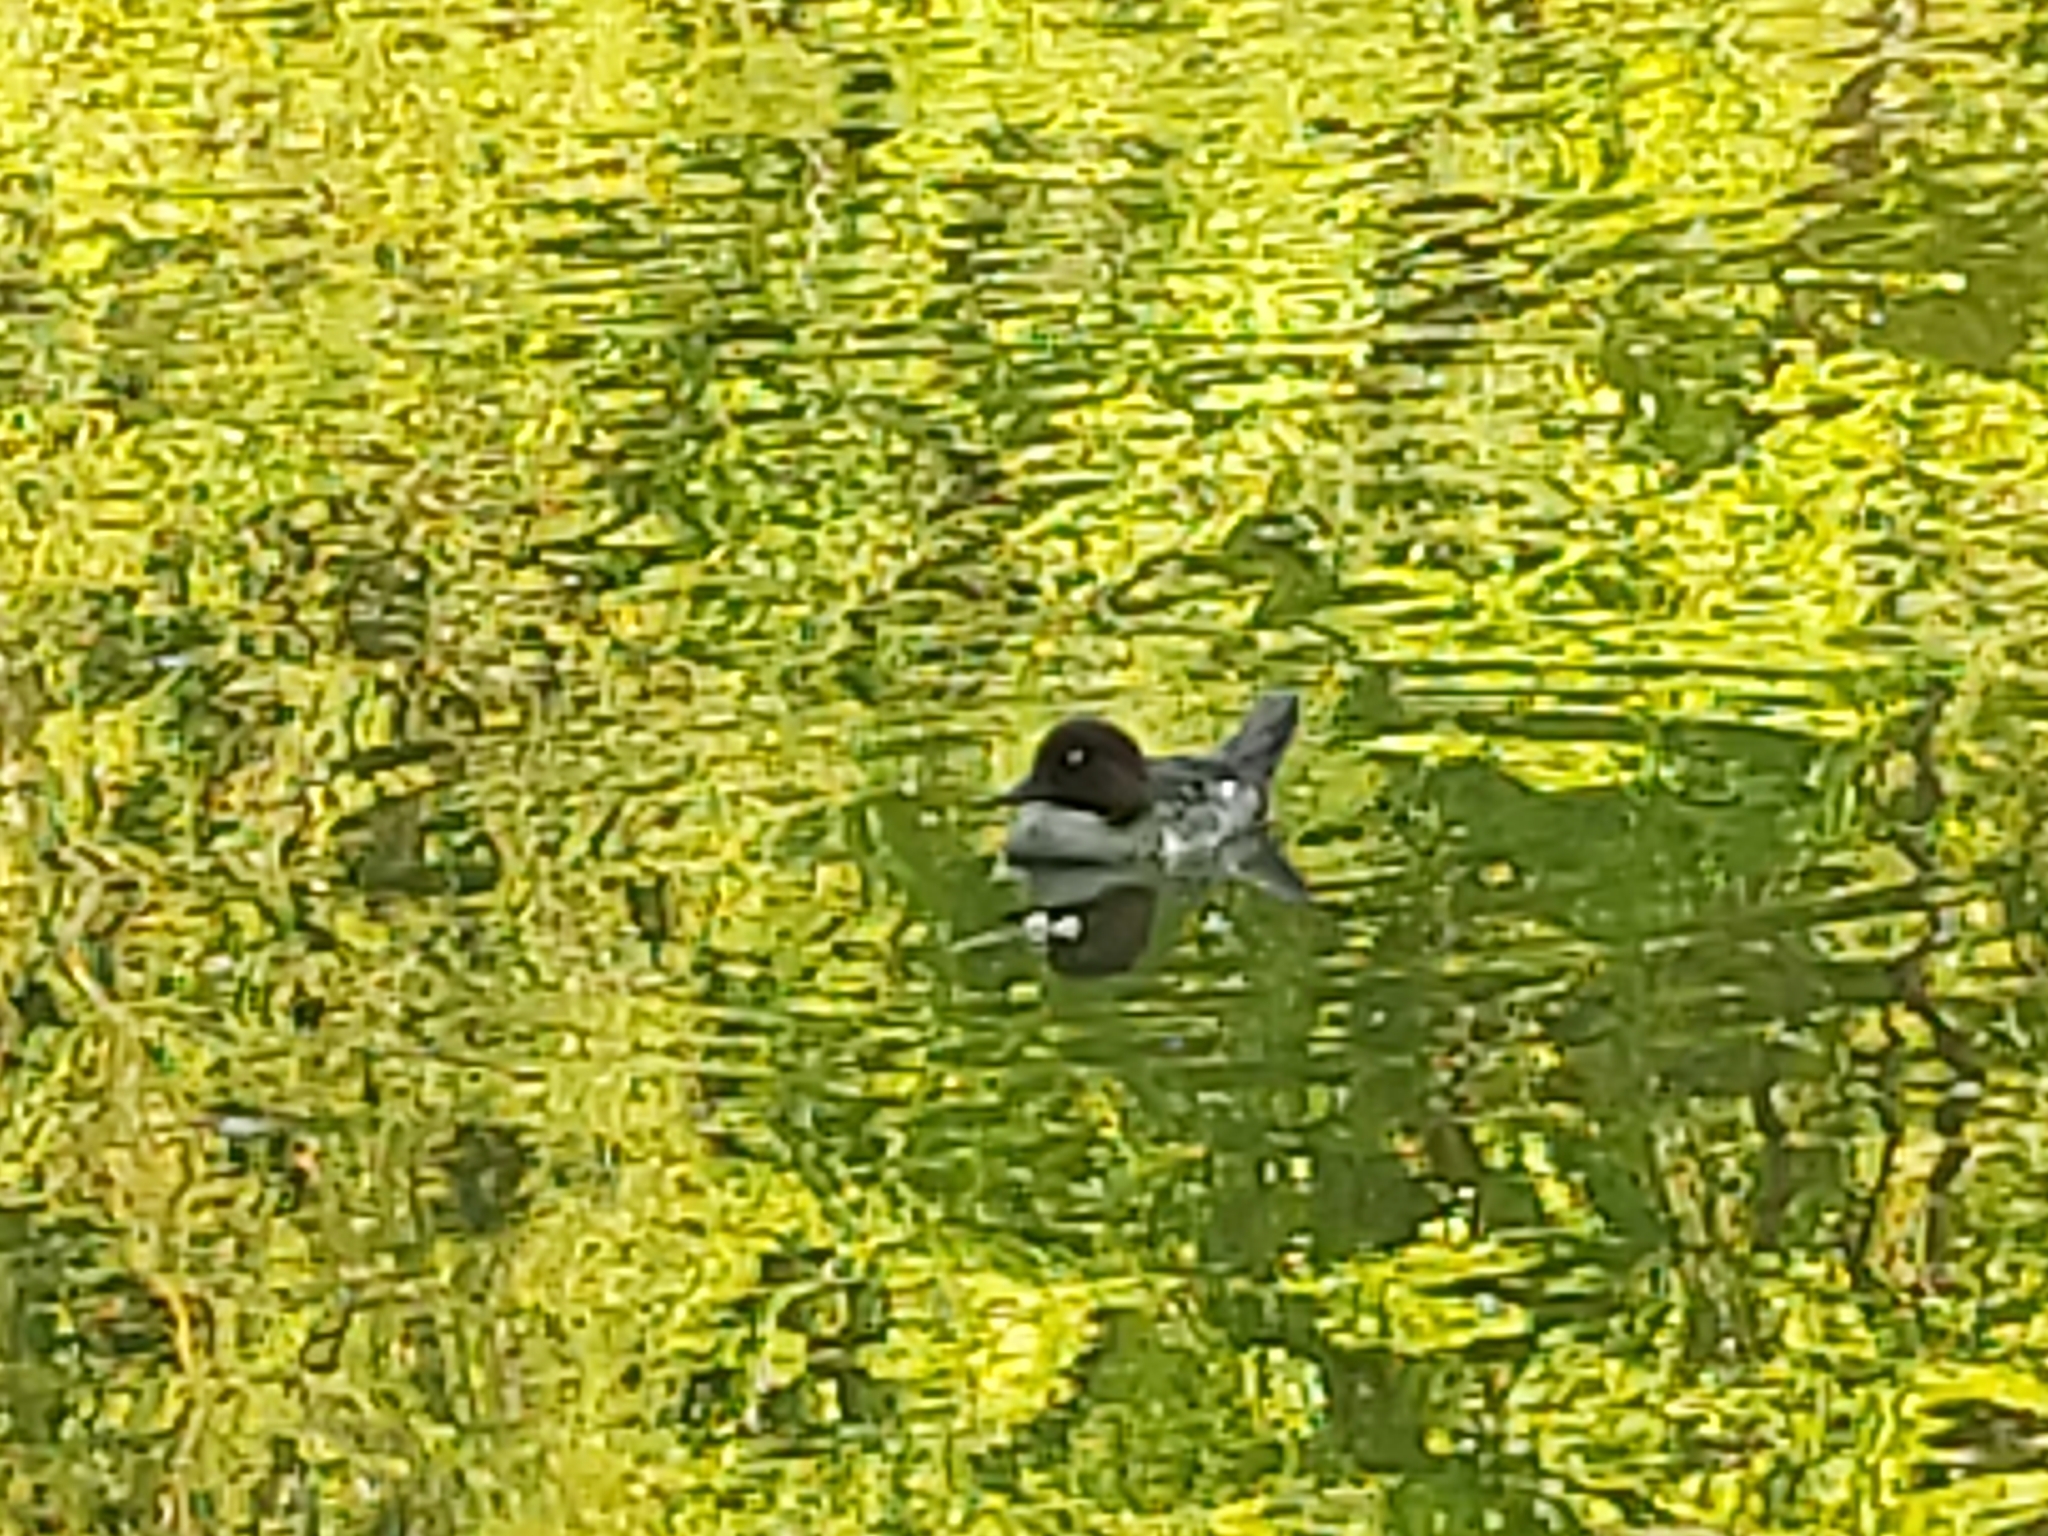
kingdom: Animalia
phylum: Chordata
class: Aves
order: Anseriformes
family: Anatidae
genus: Bucephala
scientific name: Bucephala clangula
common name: Common goldeneye
